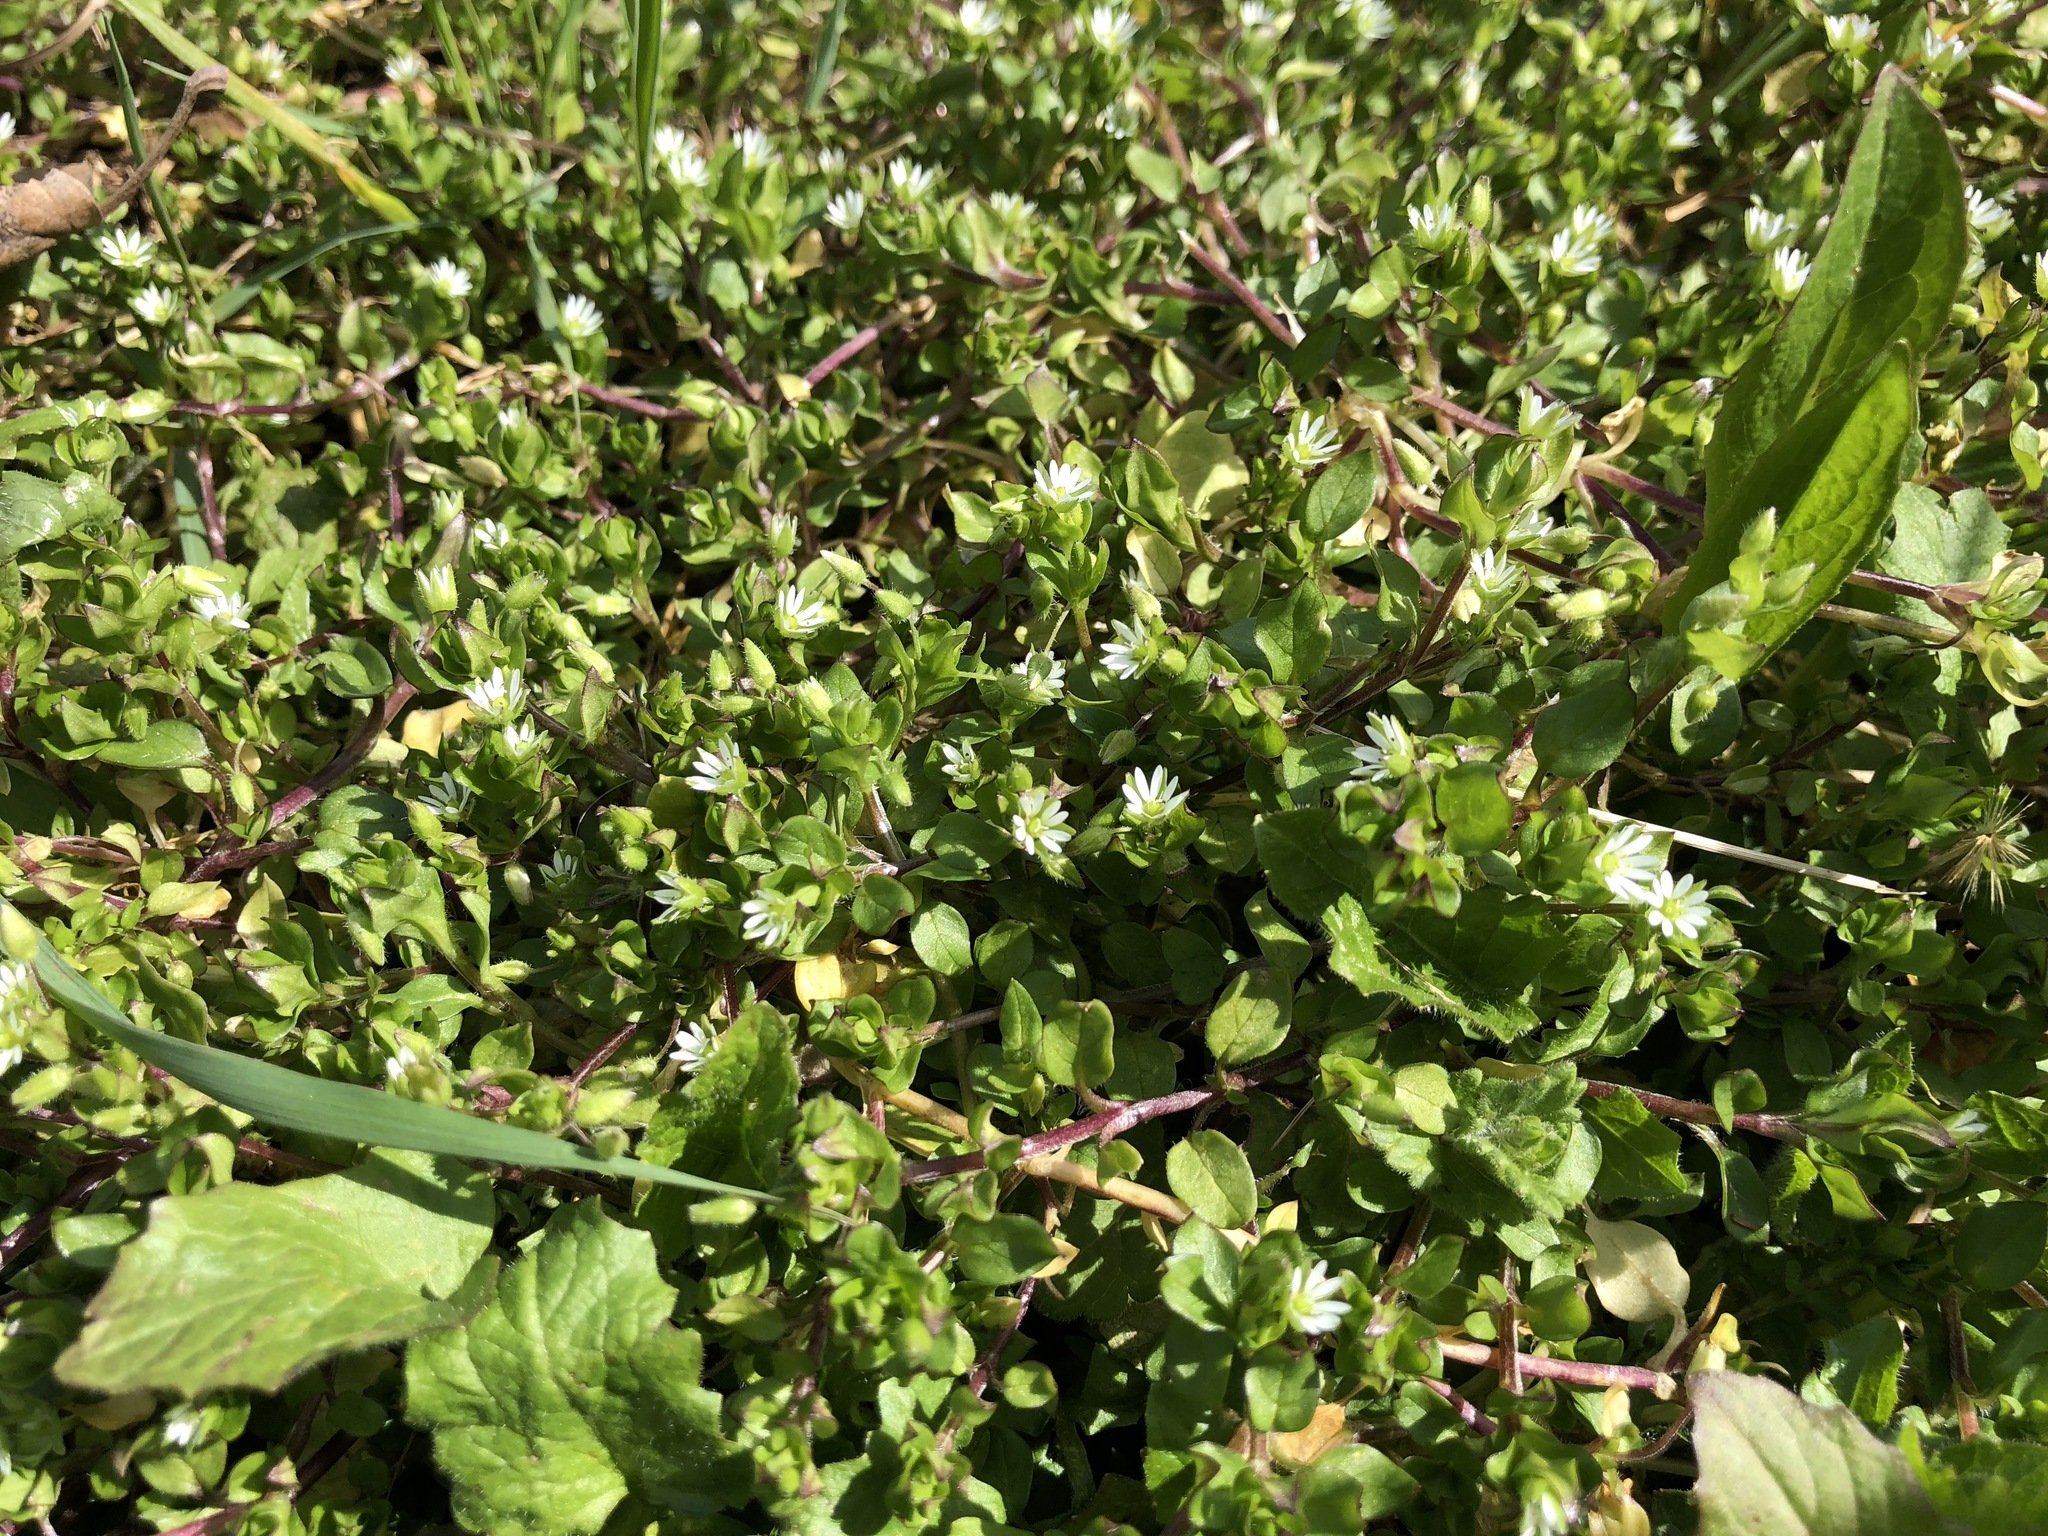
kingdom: Plantae
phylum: Tracheophyta
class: Magnoliopsida
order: Caryophyllales
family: Caryophyllaceae
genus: Stellaria
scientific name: Stellaria media
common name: Common chickweed
